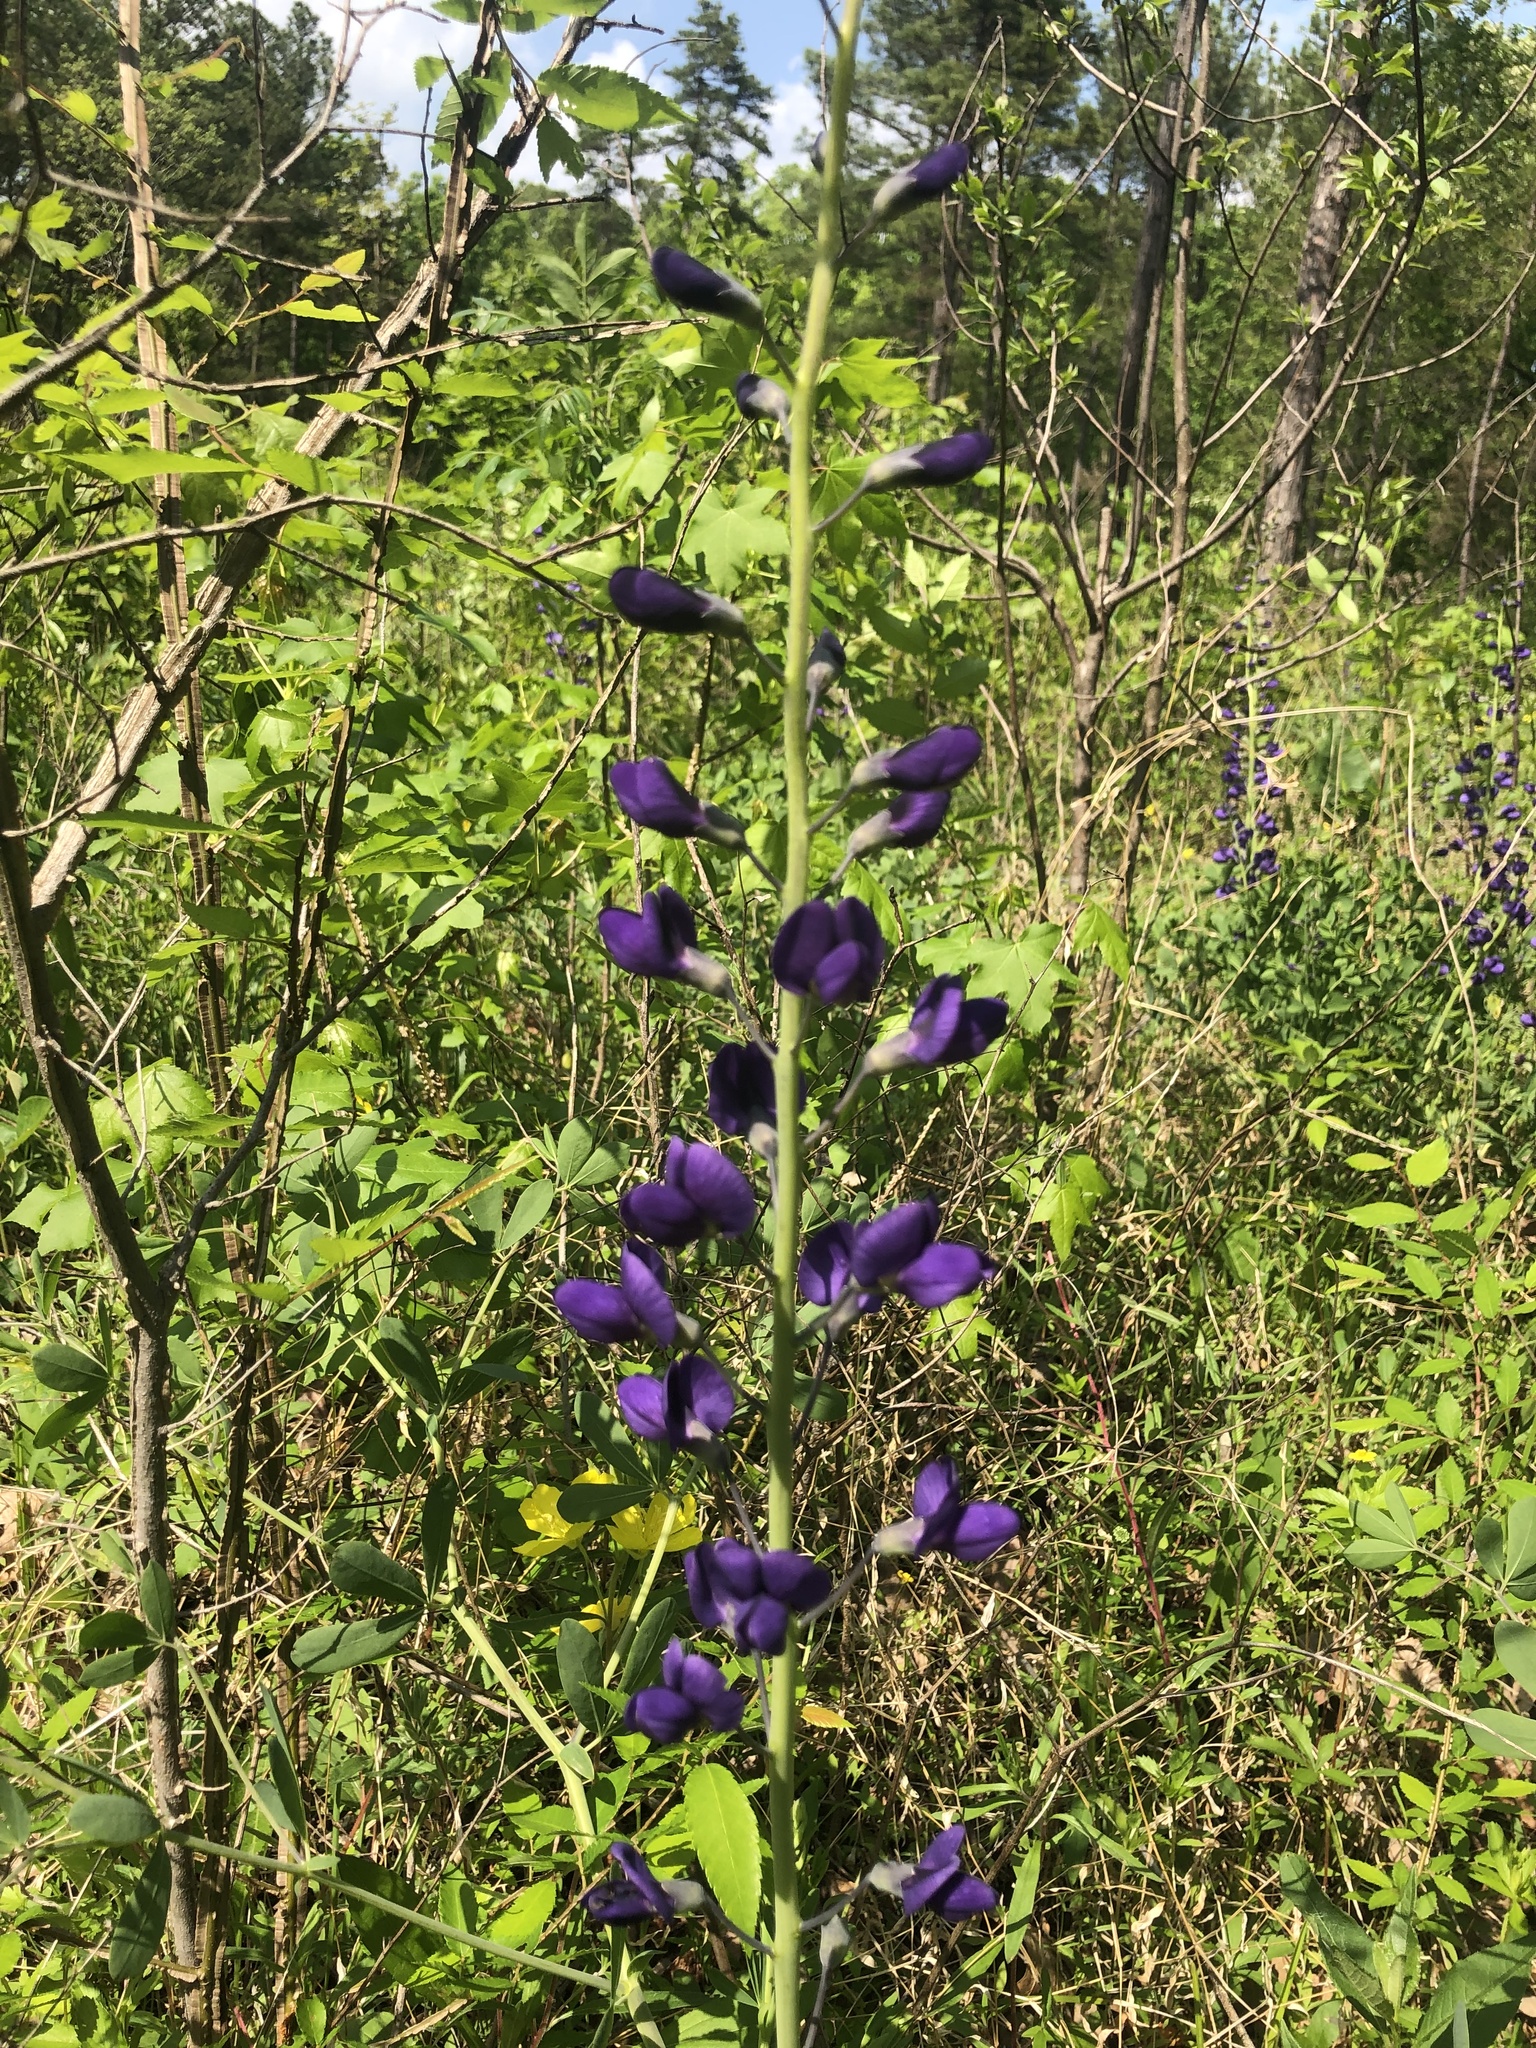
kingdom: Plantae
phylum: Tracheophyta
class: Magnoliopsida
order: Fabales
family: Fabaceae
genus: Baptisia
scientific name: Baptisia aberrans
